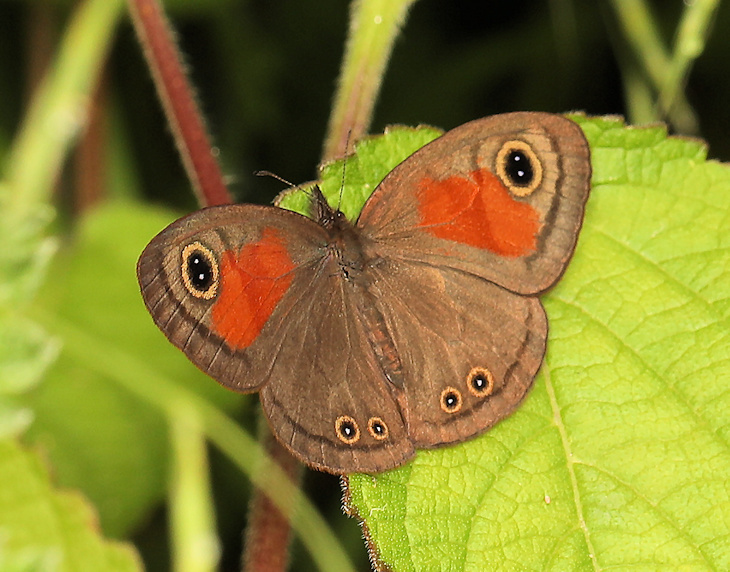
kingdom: Animalia
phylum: Arthropoda
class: Insecta
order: Lepidoptera
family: Nymphalidae
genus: Cassionympha
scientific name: Cassionympha cassius
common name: Rainforest brown
